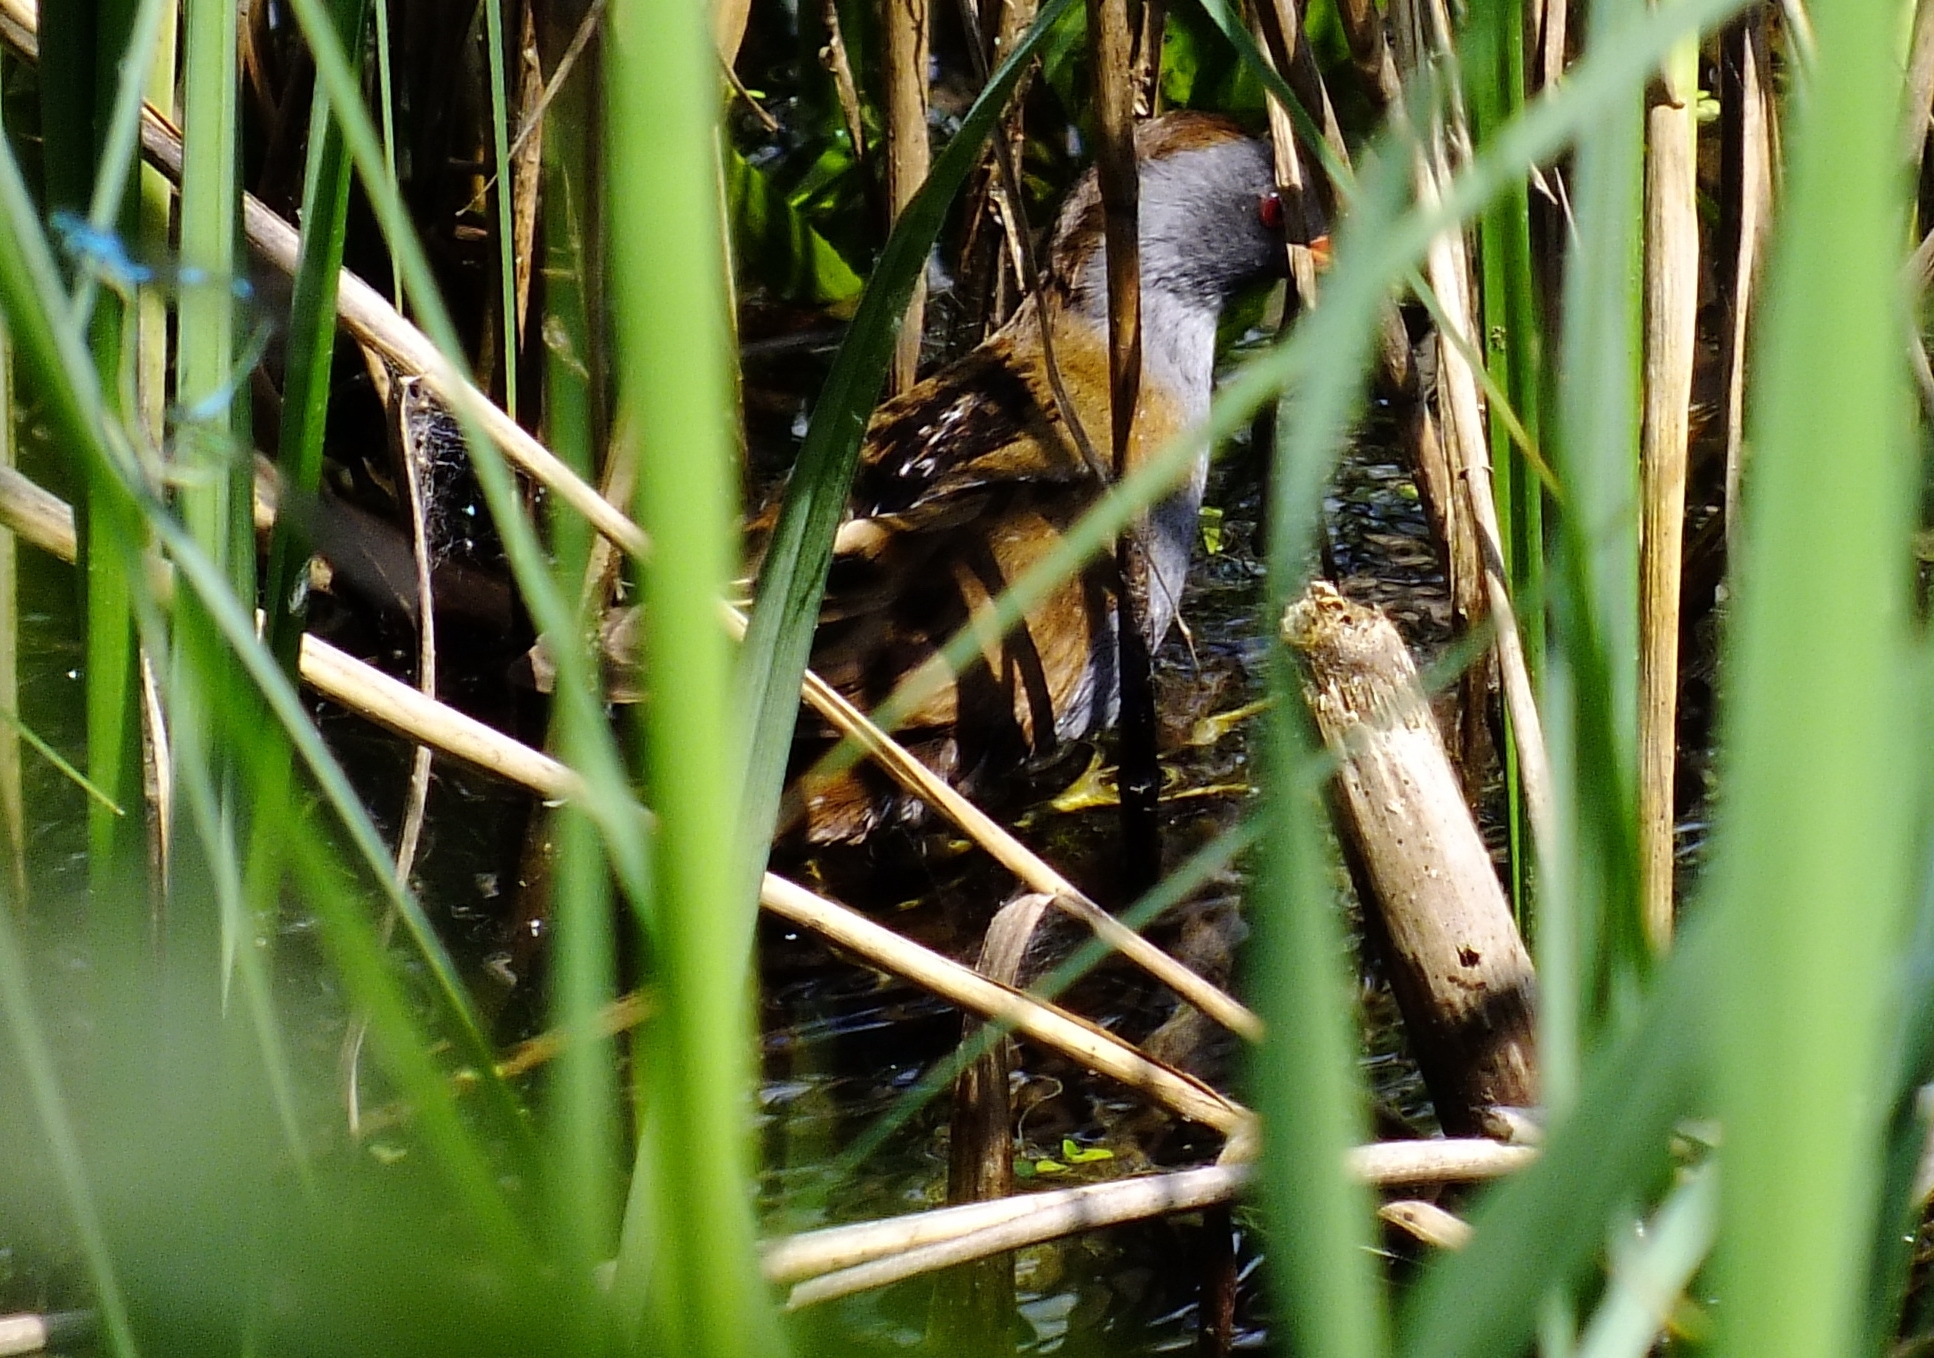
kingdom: Animalia
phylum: Chordata
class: Aves
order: Gruiformes
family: Rallidae
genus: Porzana
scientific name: Porzana parva
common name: Little crake
